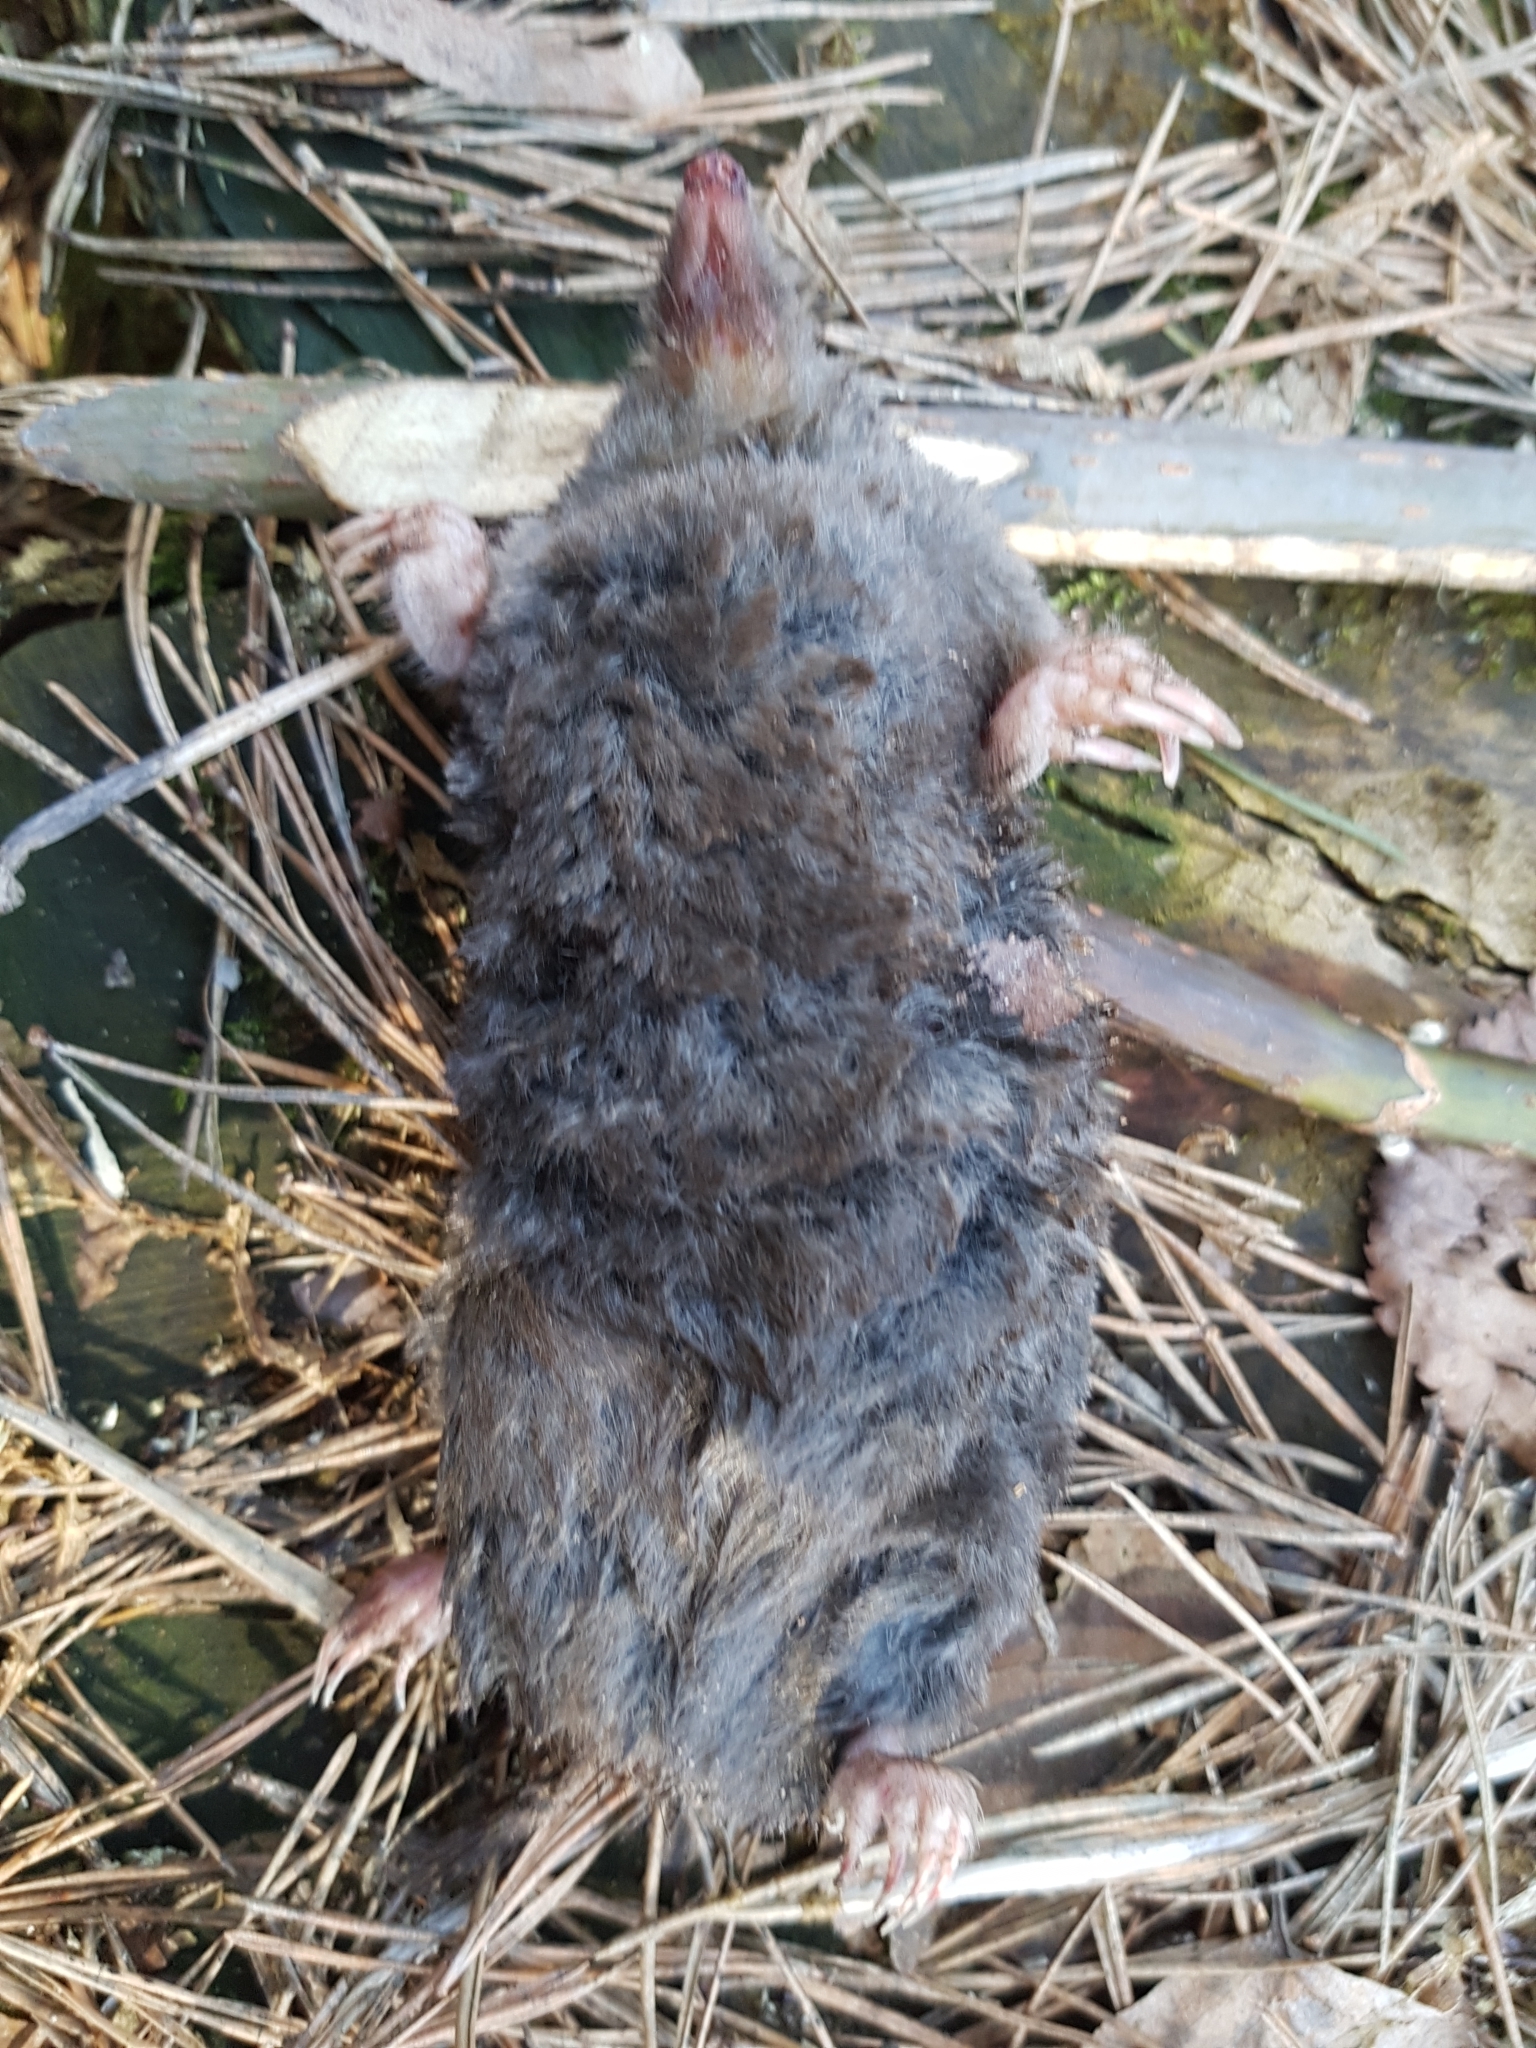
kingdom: Animalia
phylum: Chordata
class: Mammalia
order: Soricomorpha
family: Talpidae
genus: Talpa
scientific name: Talpa europaea
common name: European mole
